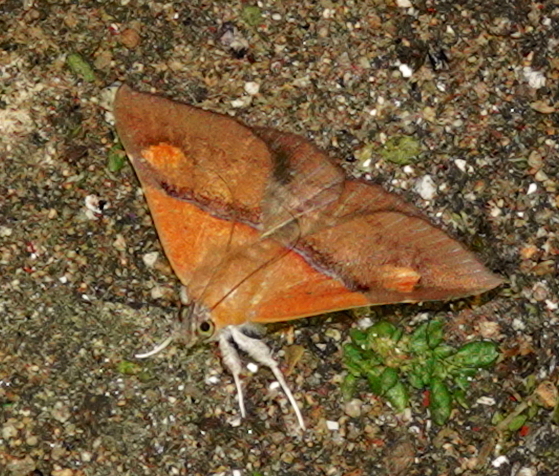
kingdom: Animalia
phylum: Arthropoda
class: Insecta
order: Lepidoptera
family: Erebidae
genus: Sympis
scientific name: Sympis rufibasis
